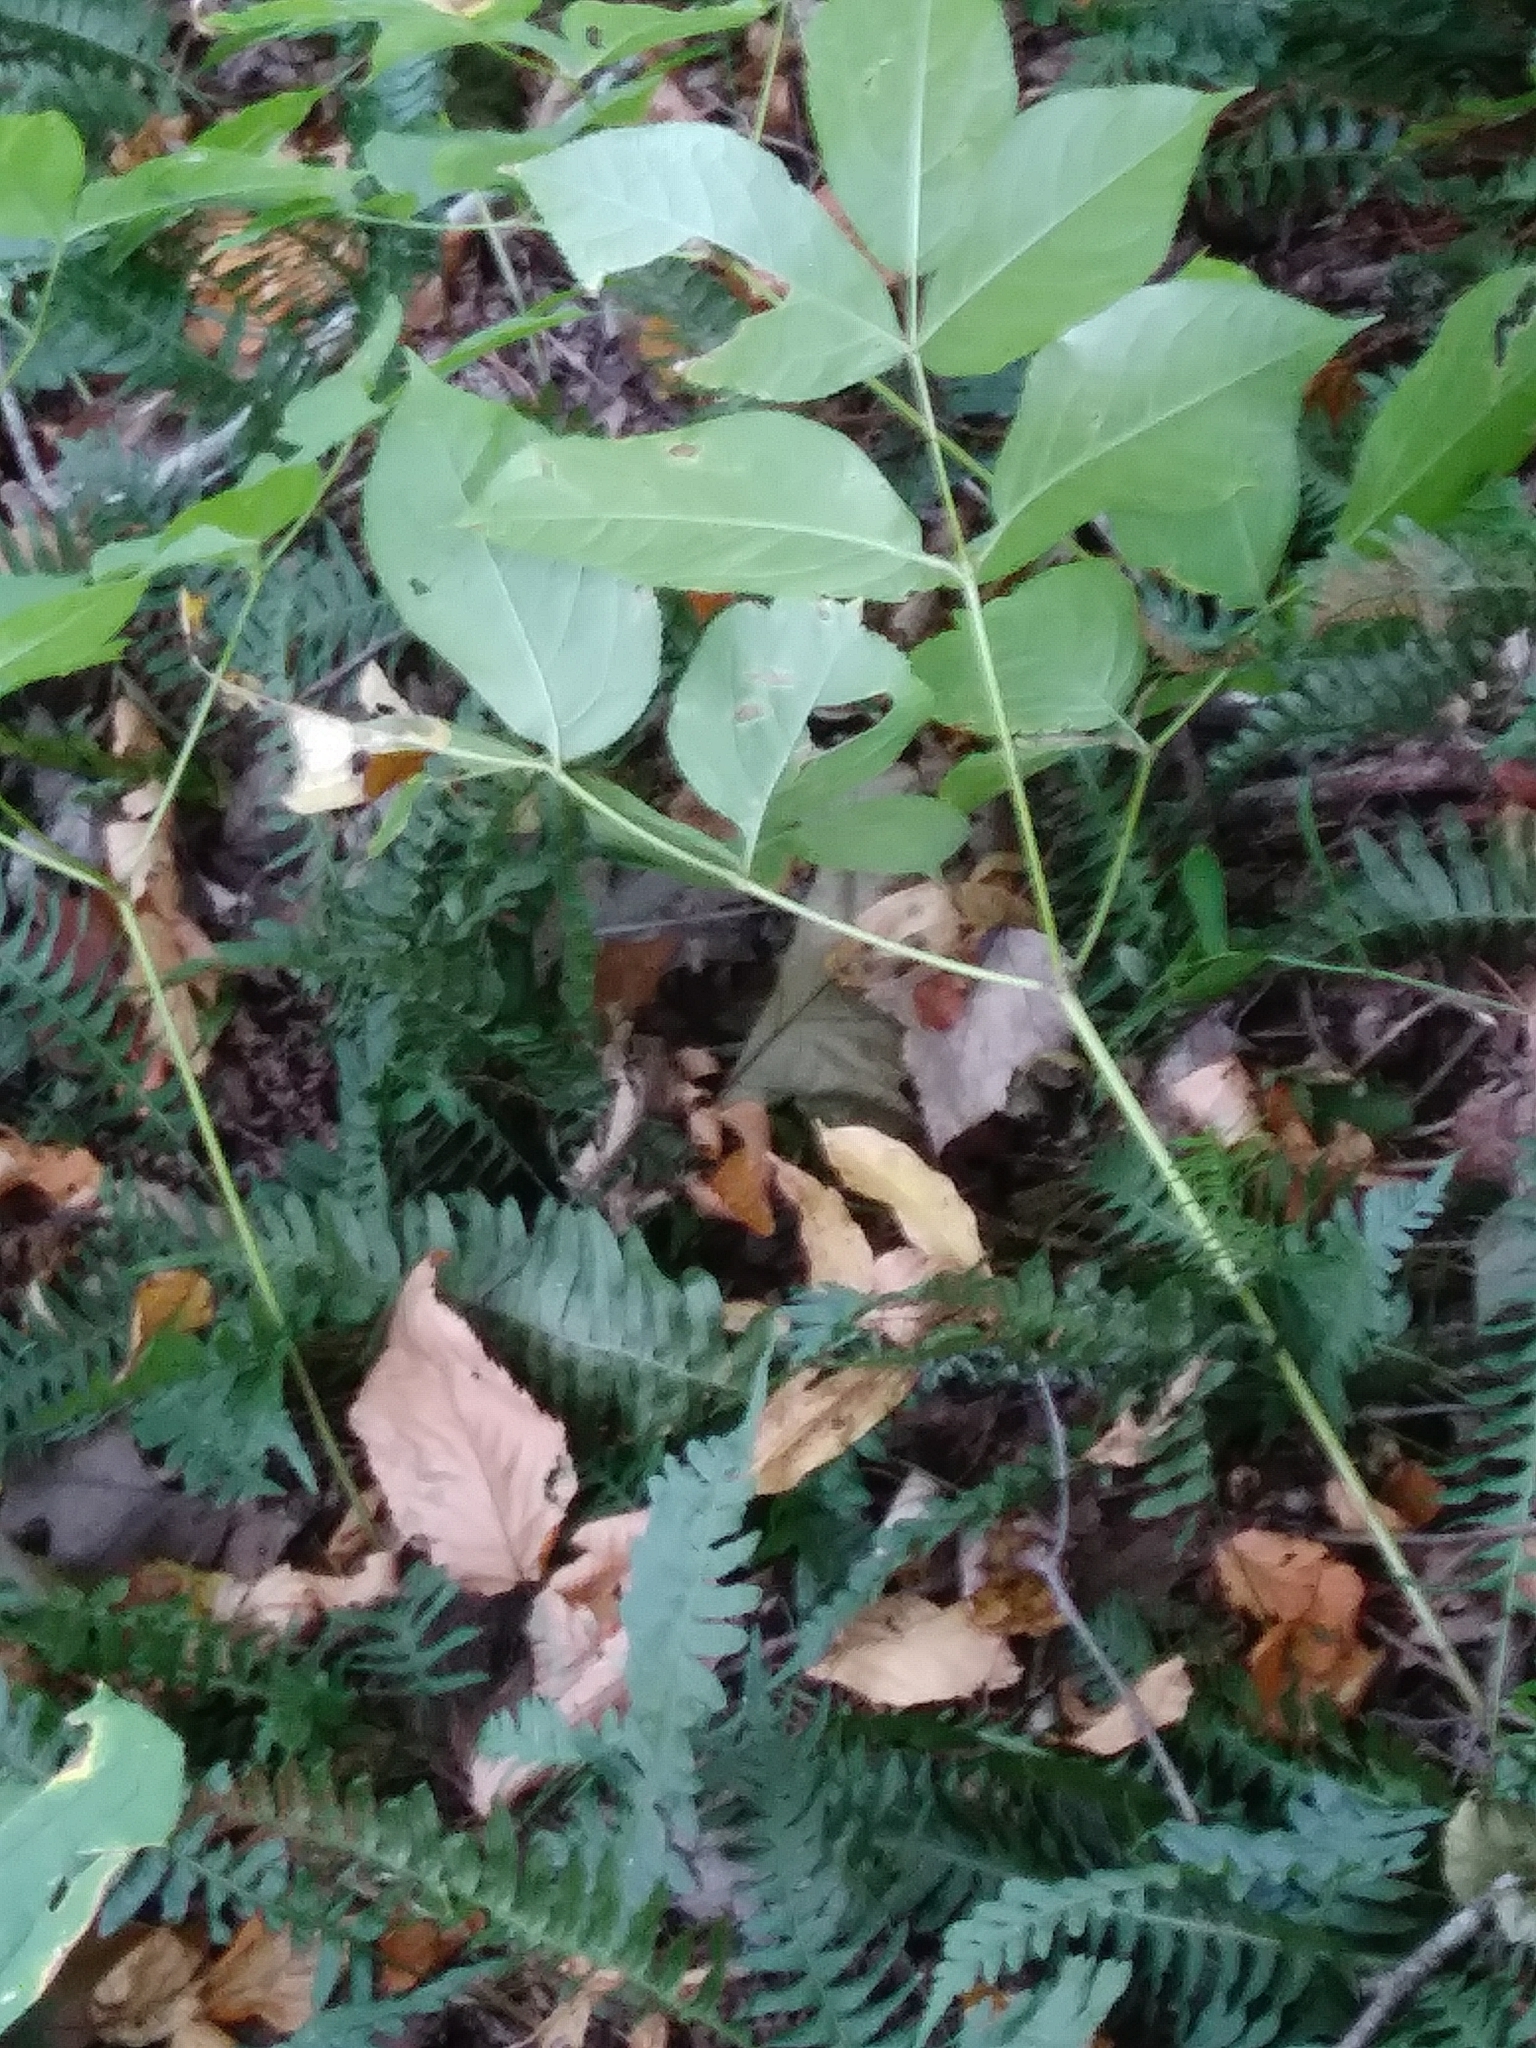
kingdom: Plantae
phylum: Tracheophyta
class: Magnoliopsida
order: Apiales
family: Araliaceae
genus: Aralia
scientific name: Aralia nudicaulis
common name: Wild sarsaparilla
